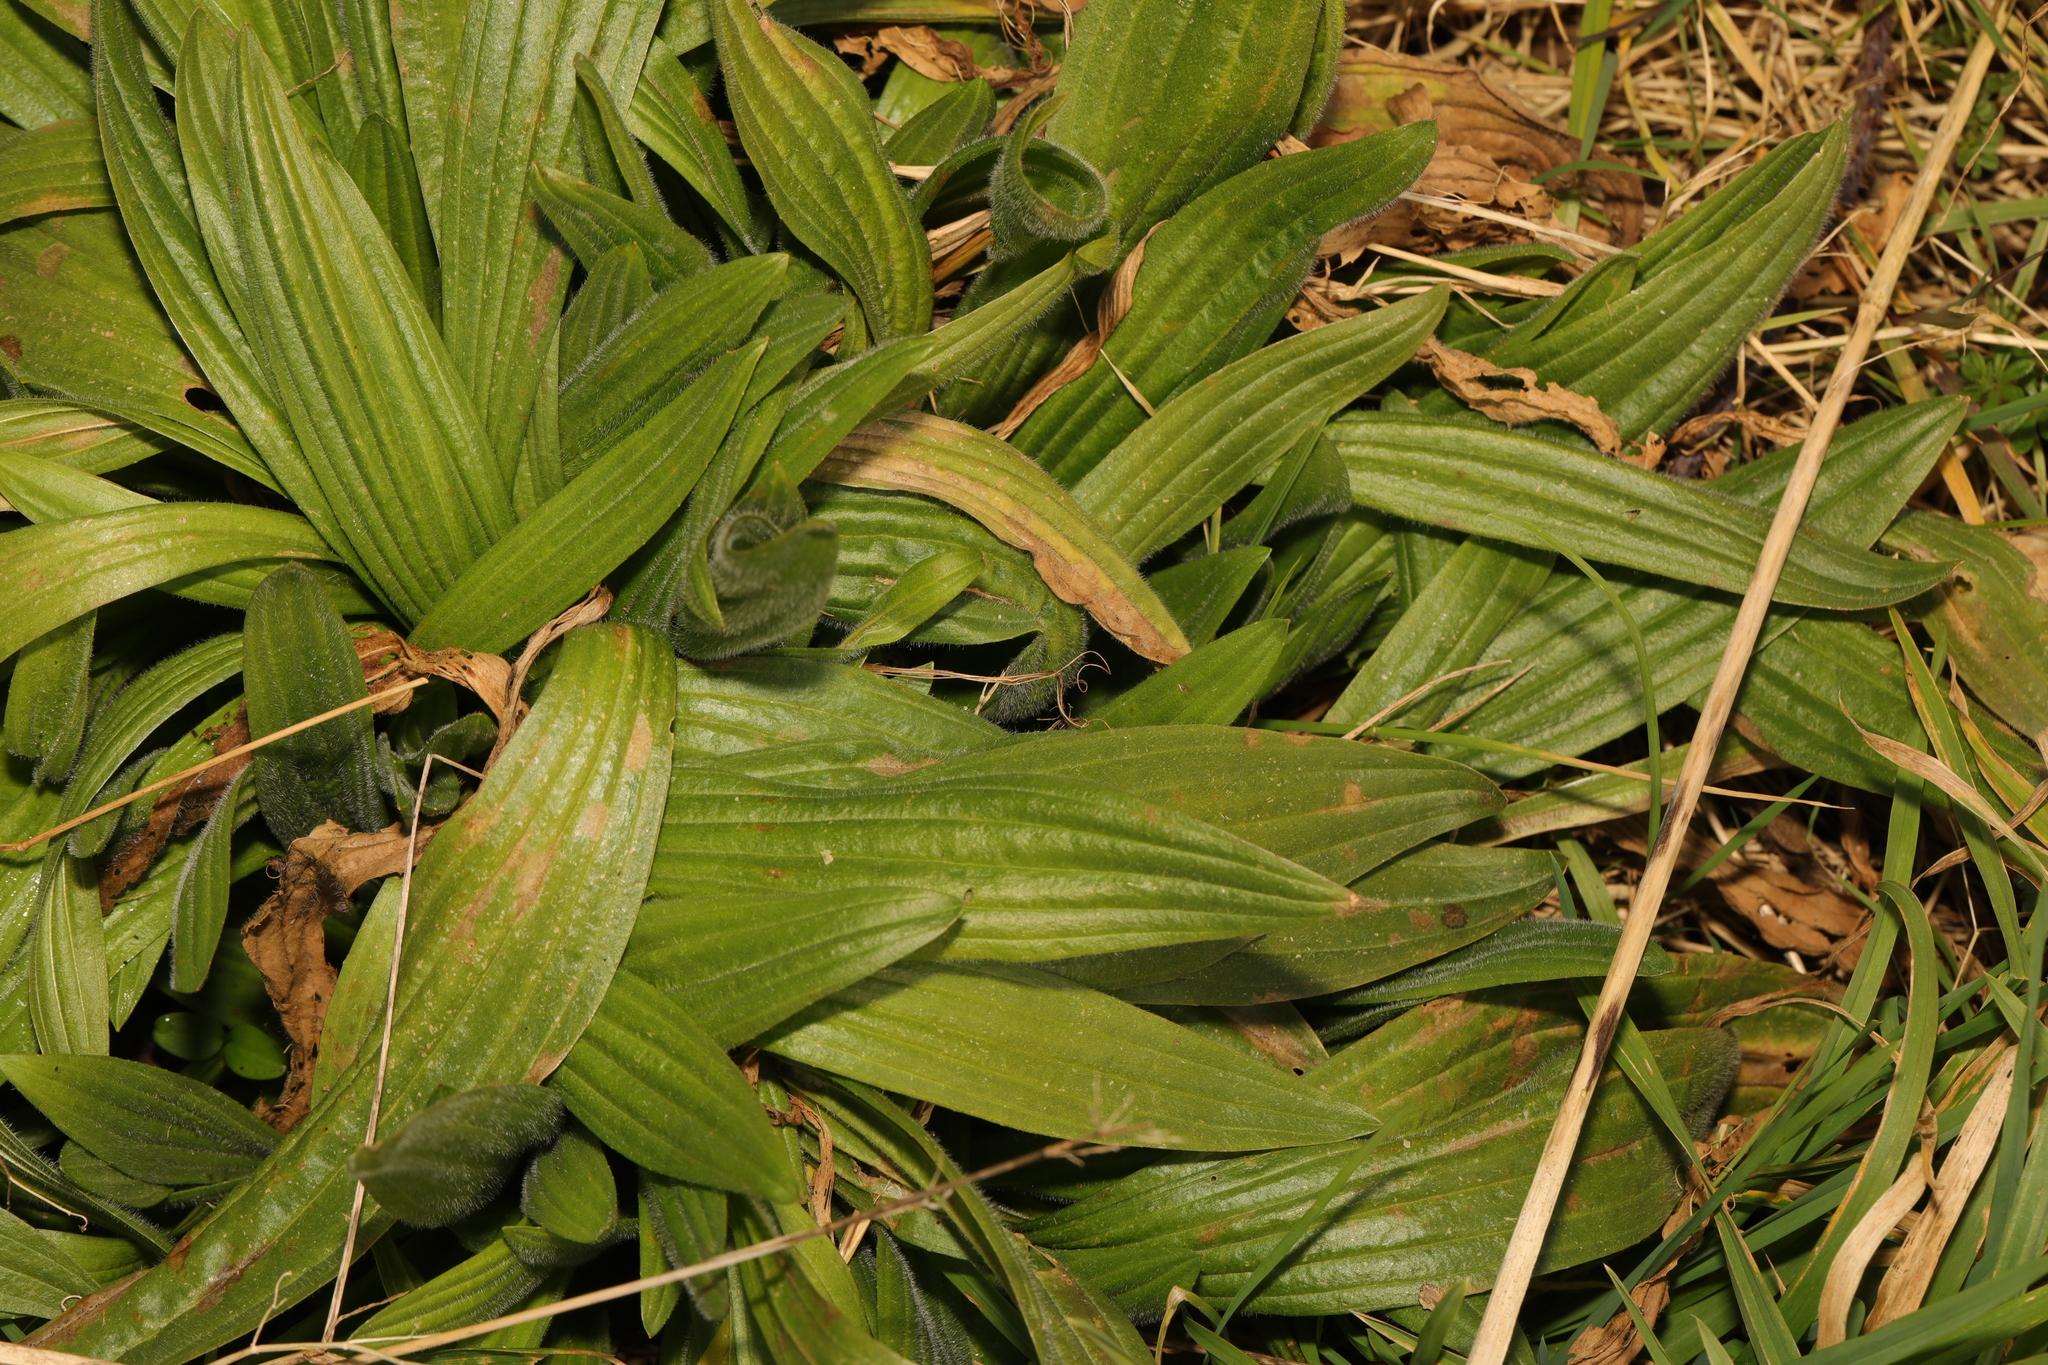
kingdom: Plantae
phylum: Tracheophyta
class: Magnoliopsida
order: Lamiales
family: Plantaginaceae
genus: Plantago
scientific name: Plantago lanceolata
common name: Ribwort plantain
